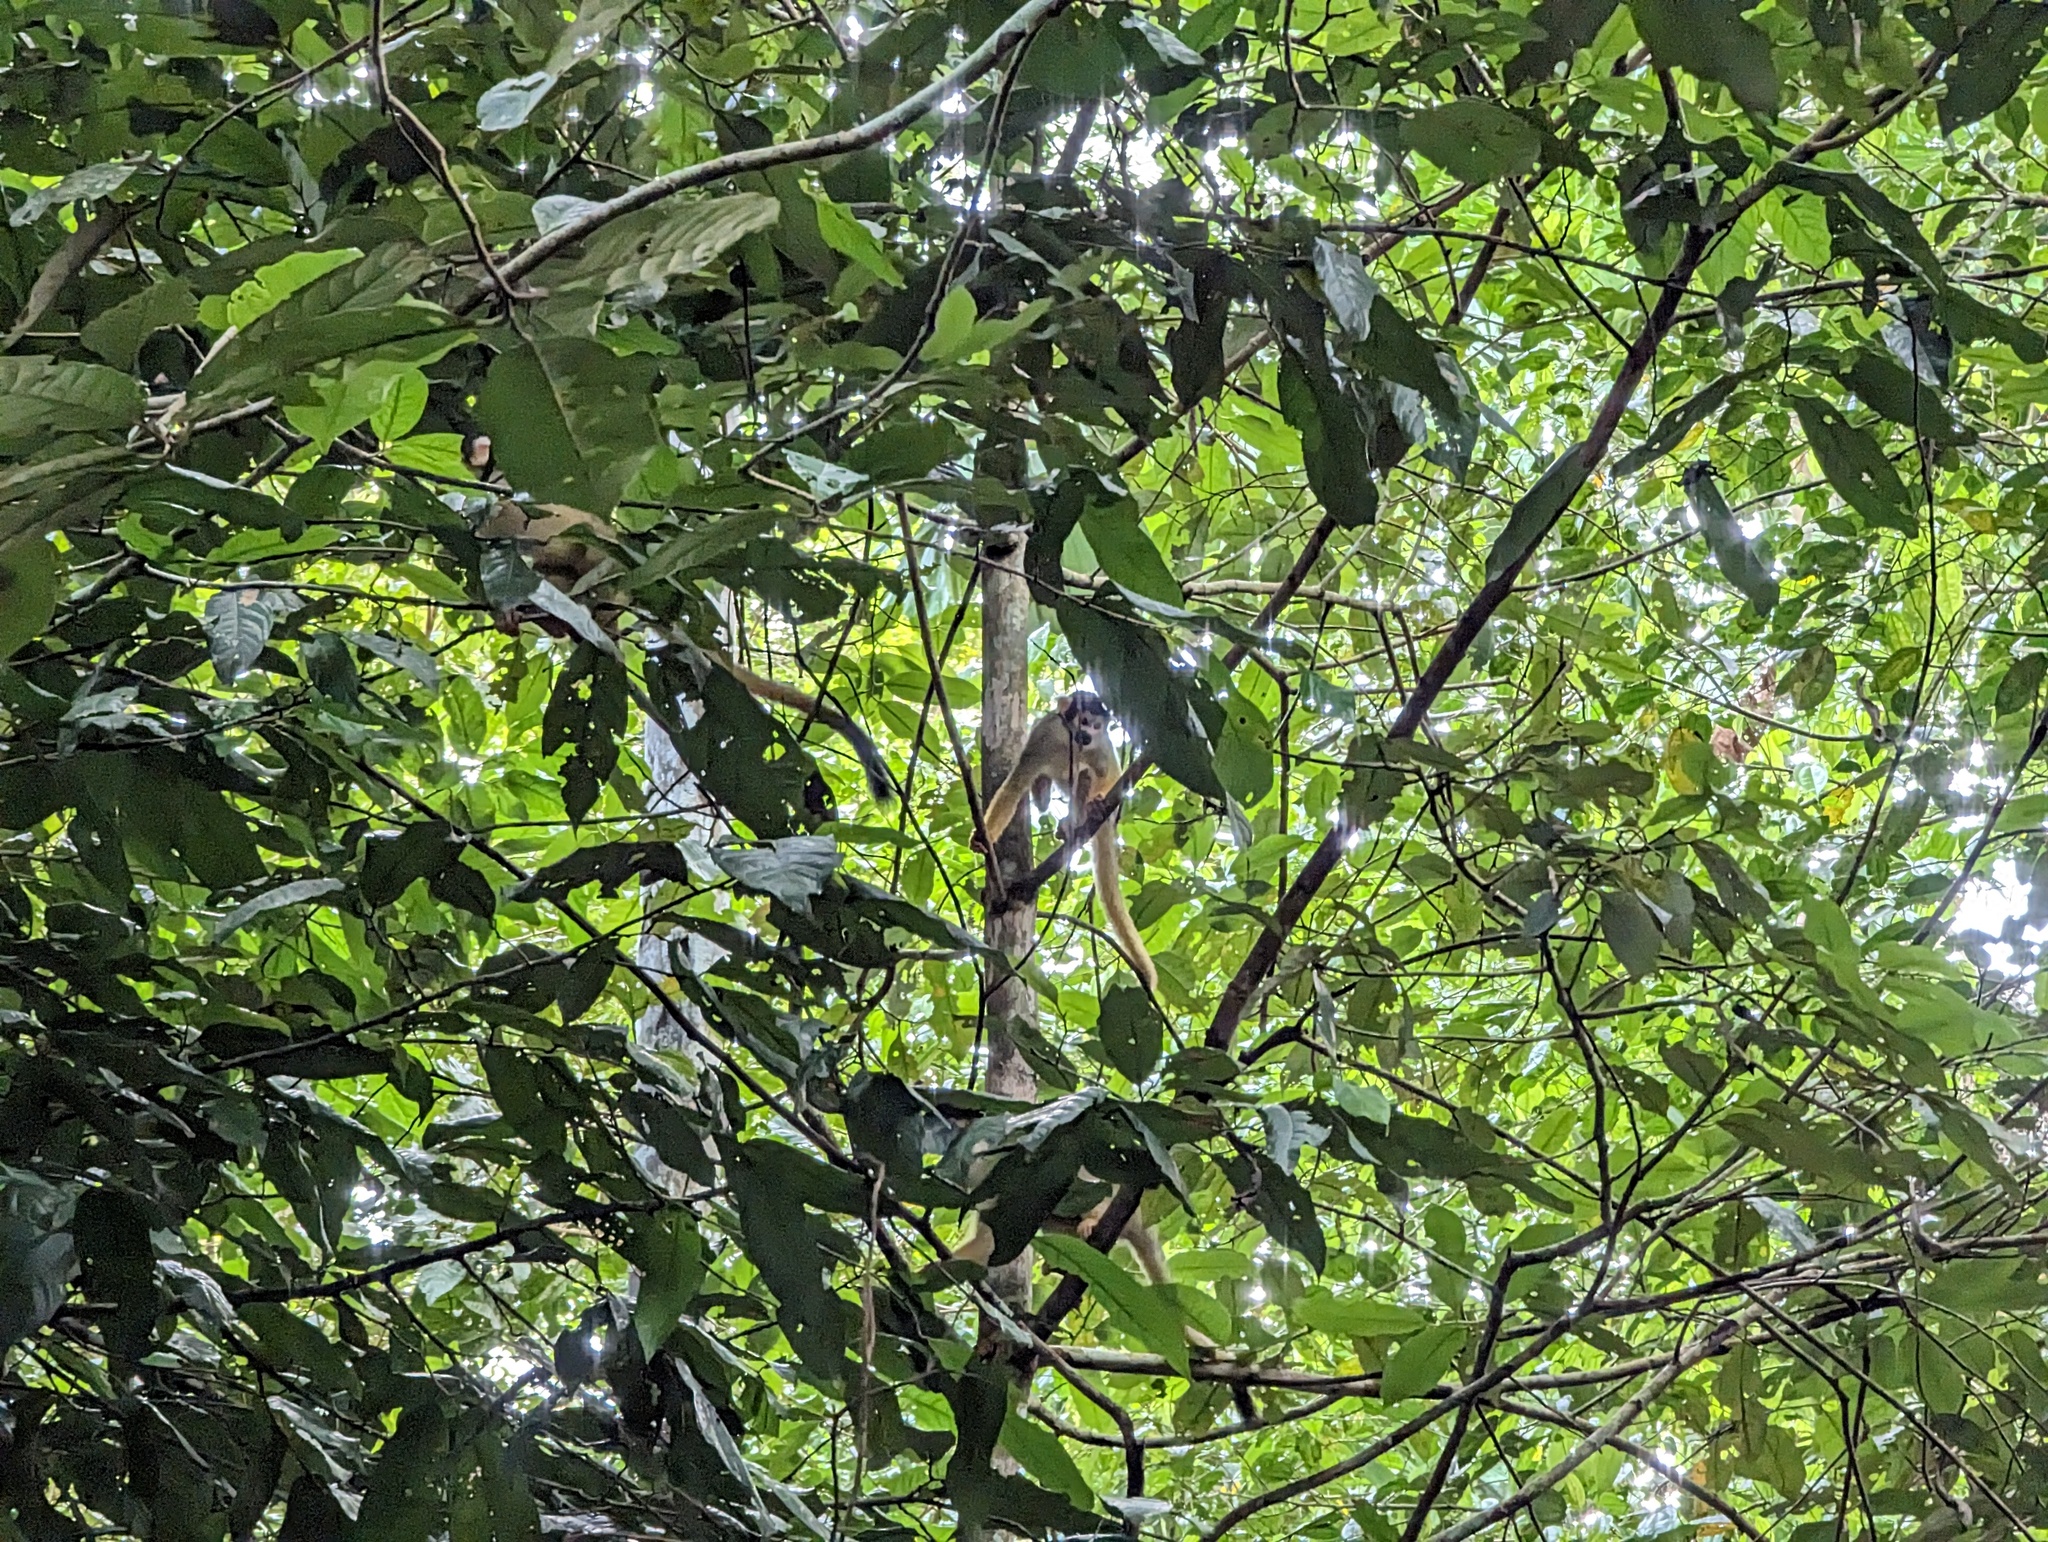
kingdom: Animalia
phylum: Chordata
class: Mammalia
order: Primates
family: Cebidae
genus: Saimiri
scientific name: Saimiri boliviensis
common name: Black-capped squirrel monkey
